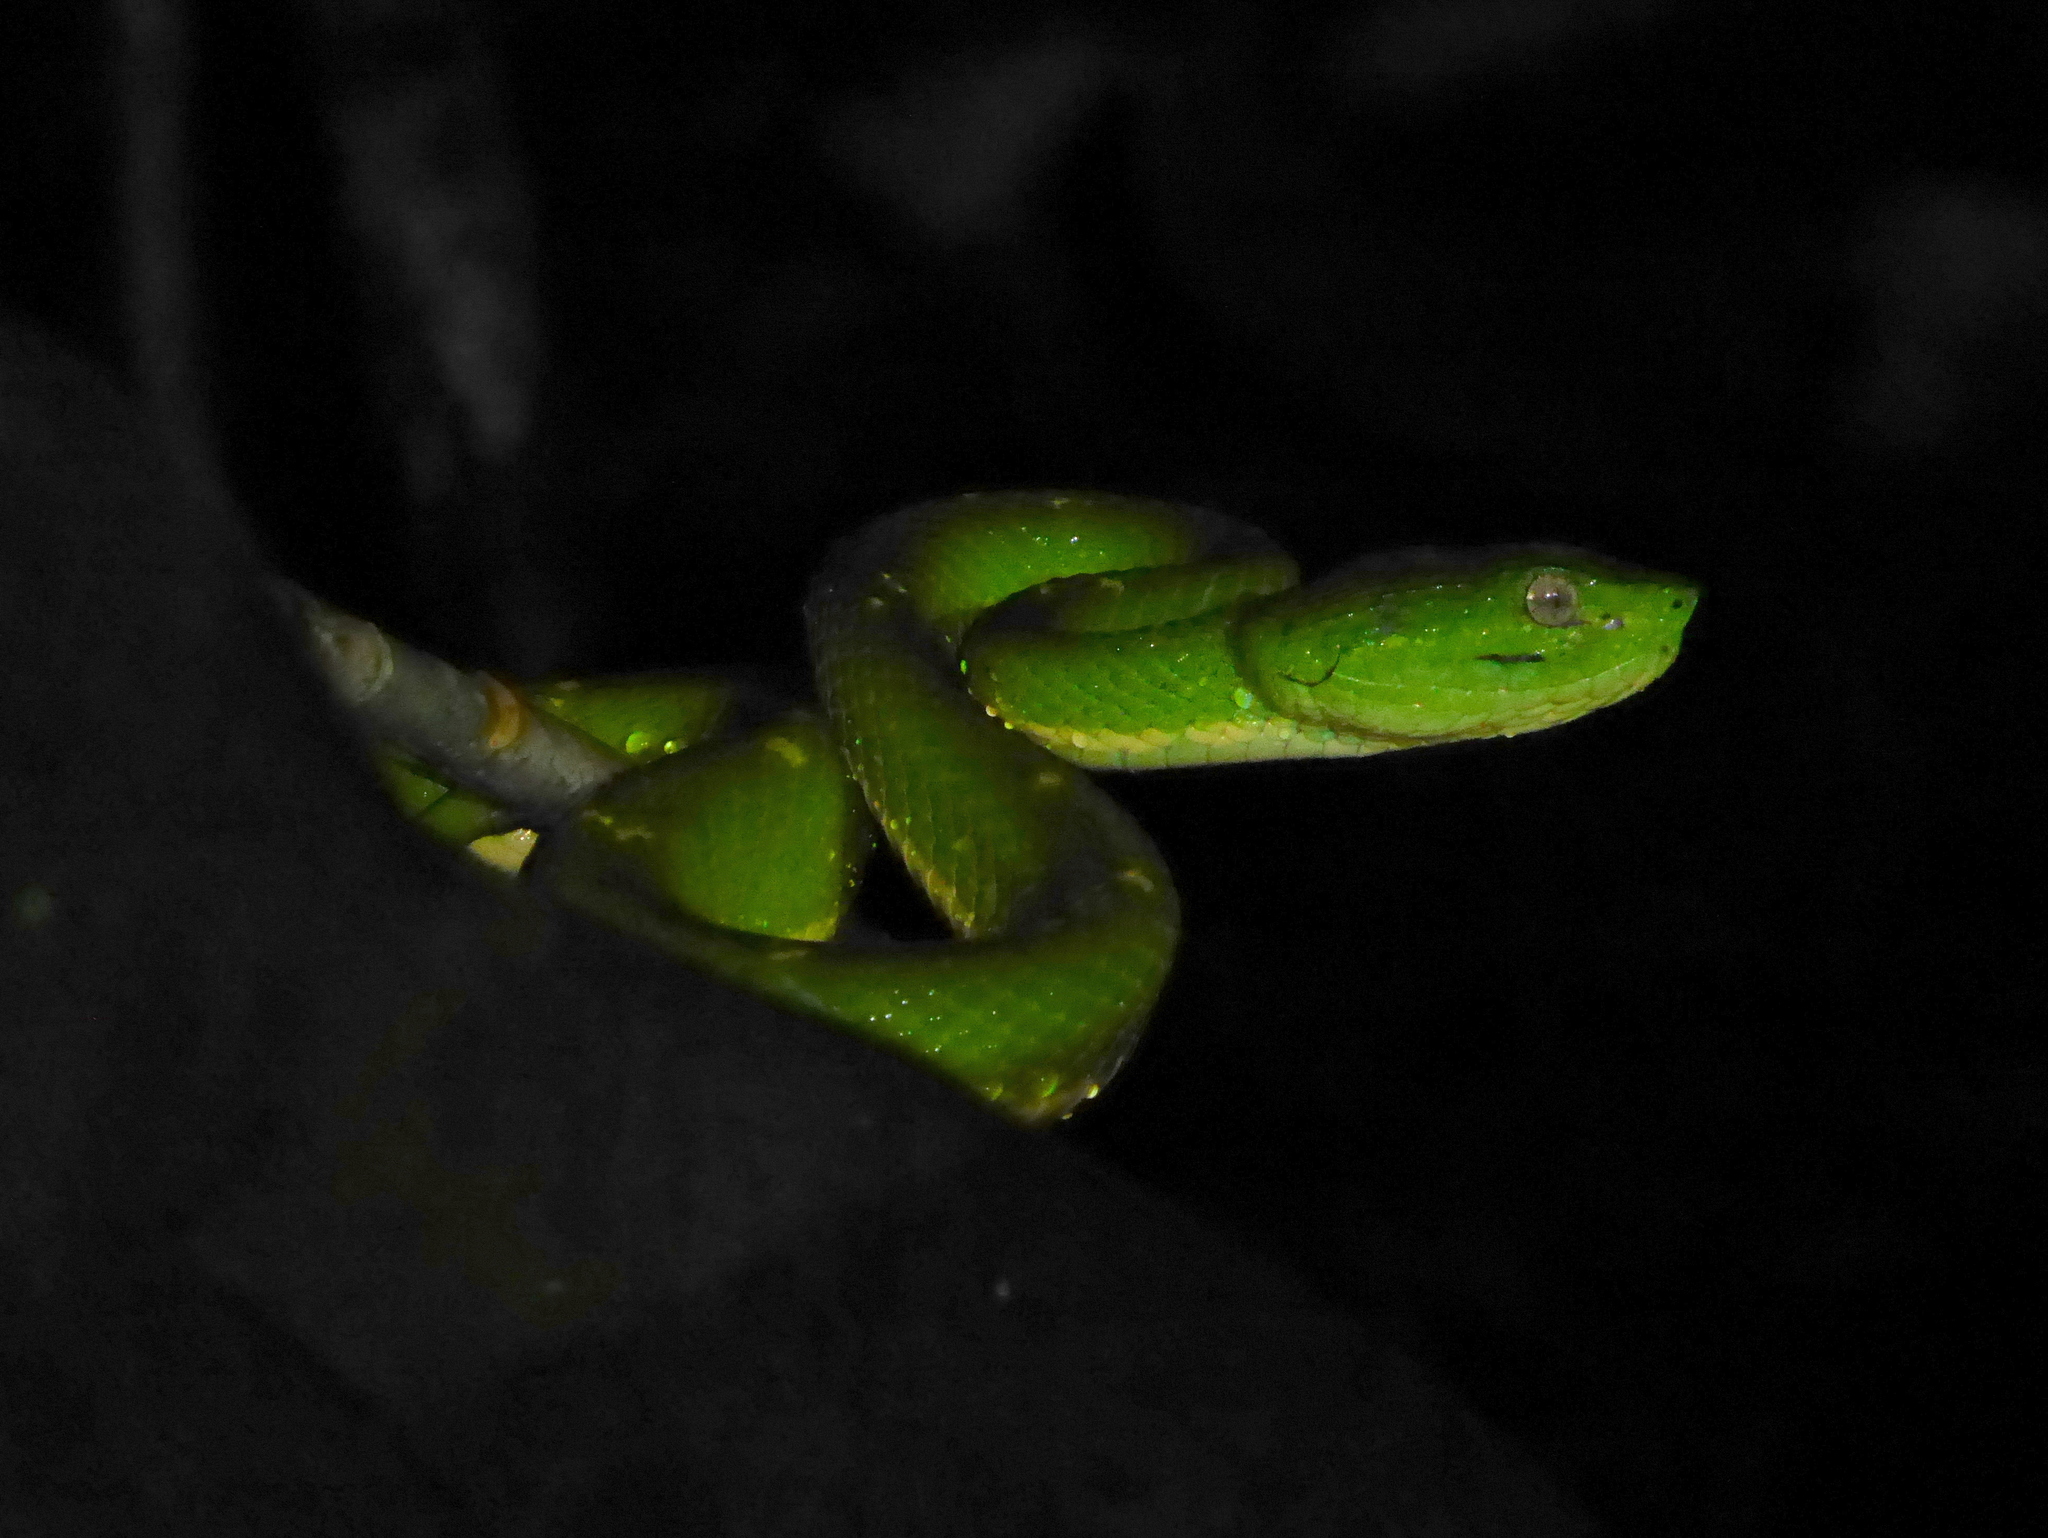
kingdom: Animalia
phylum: Chordata
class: Squamata
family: Viperidae
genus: Bothriechis
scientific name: Bothriechis lateralis
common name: Coffee palm viper
